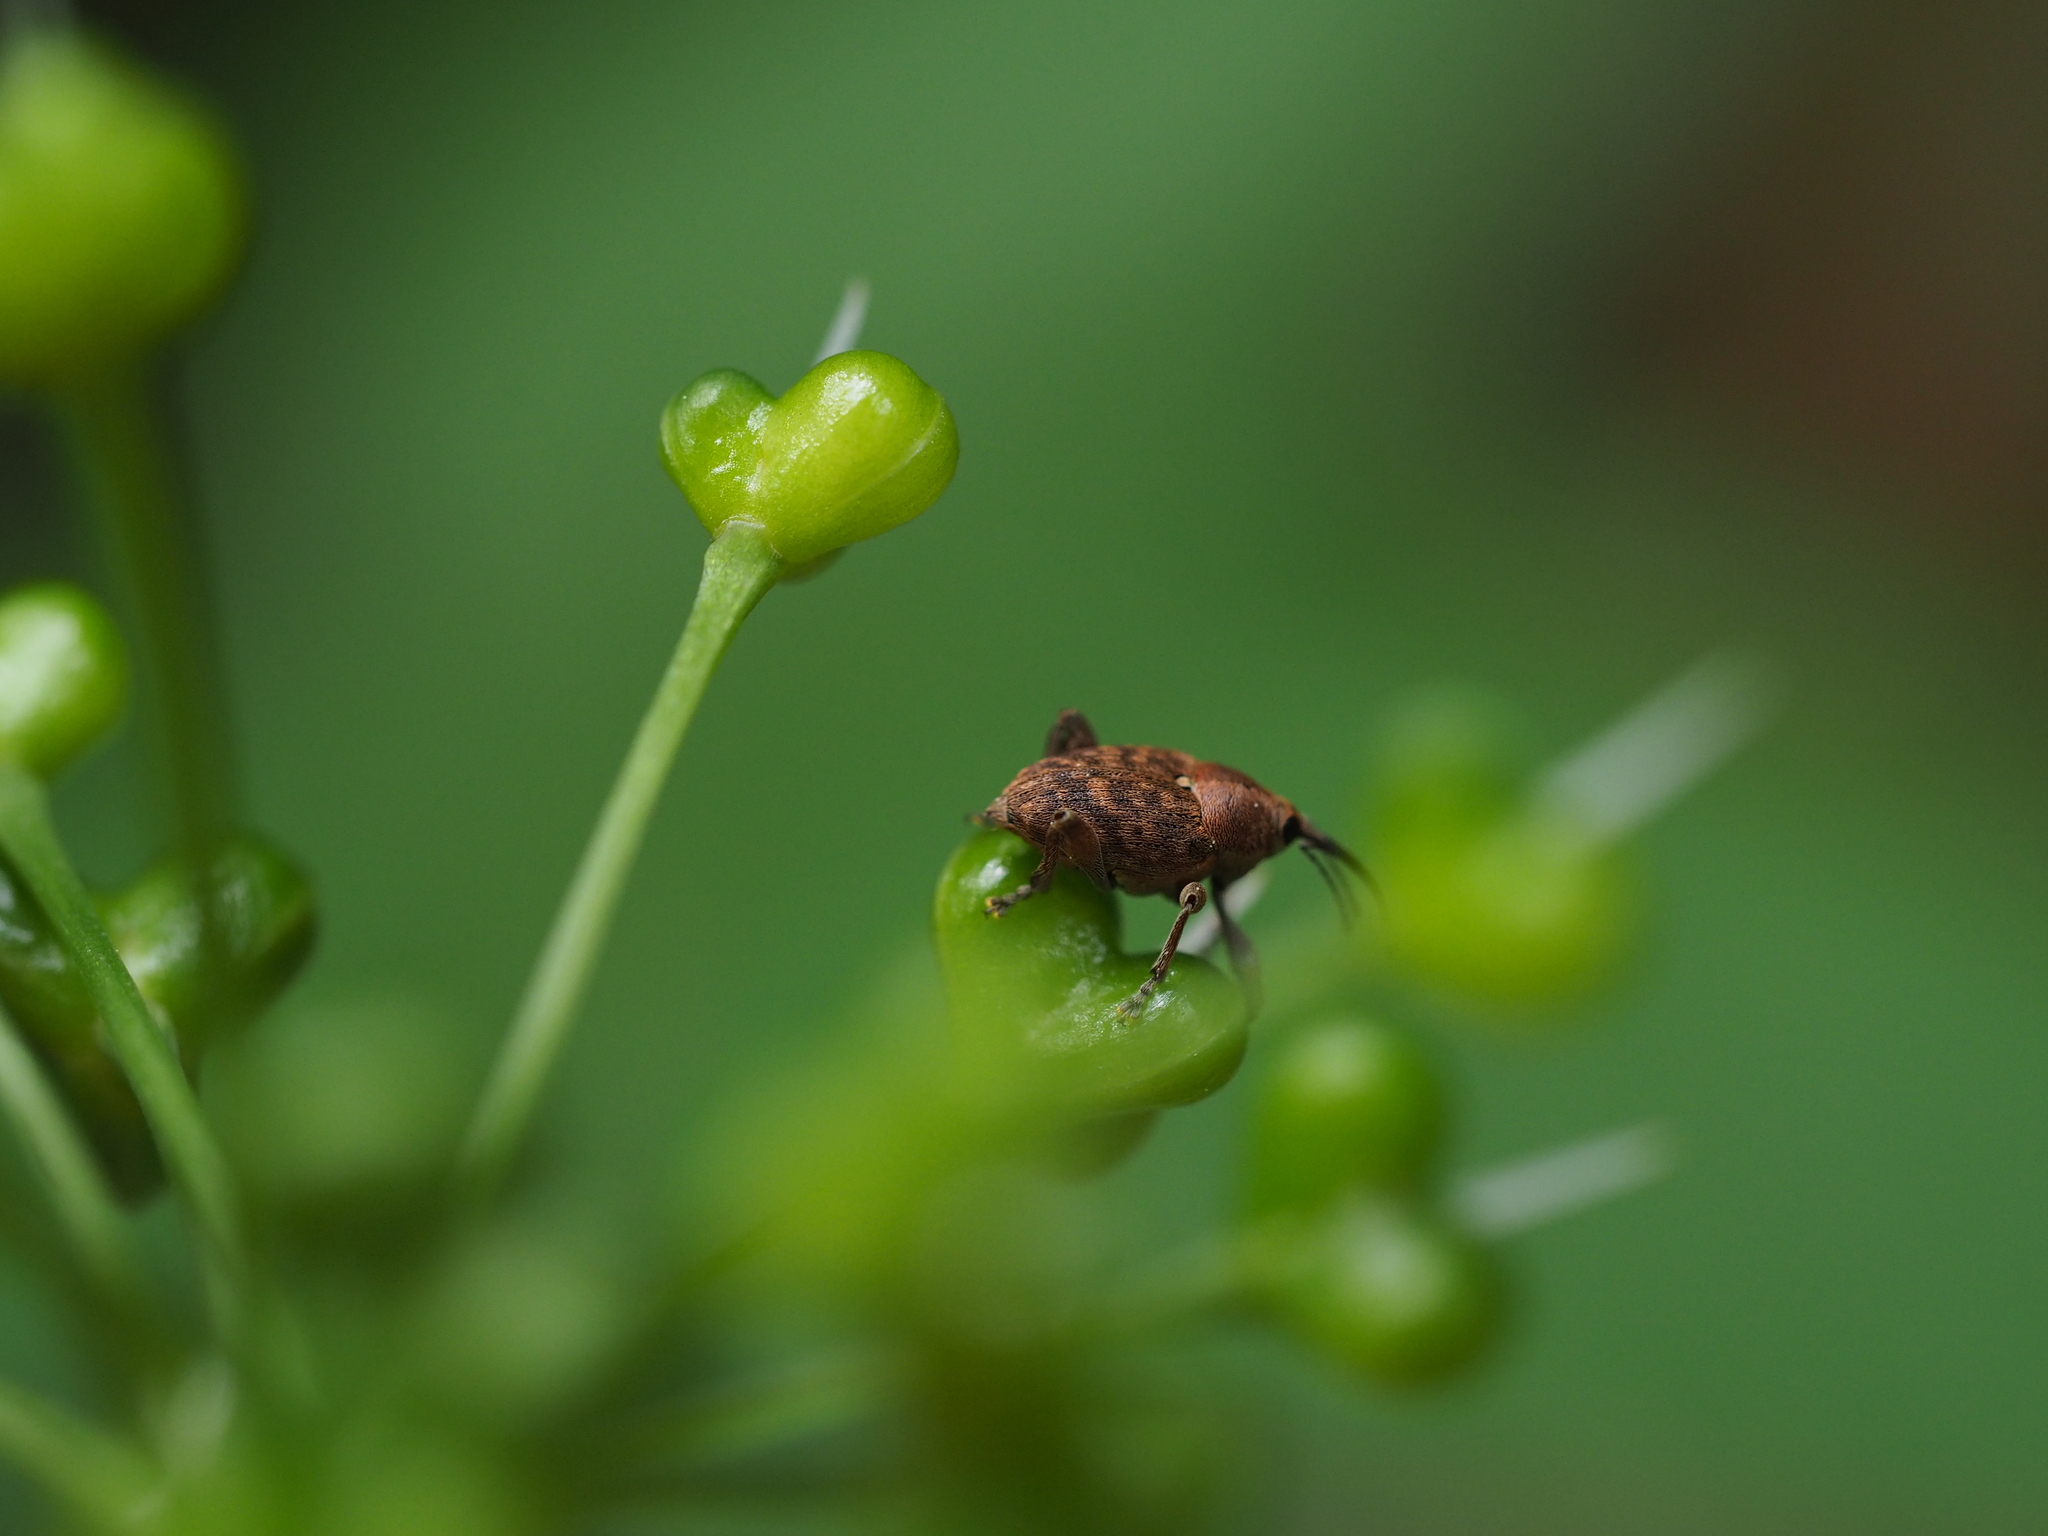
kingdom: Animalia
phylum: Arthropoda
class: Insecta
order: Coleoptera
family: Curculionidae
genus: Curculio
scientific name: Curculio glandium
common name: Acorn weevil
